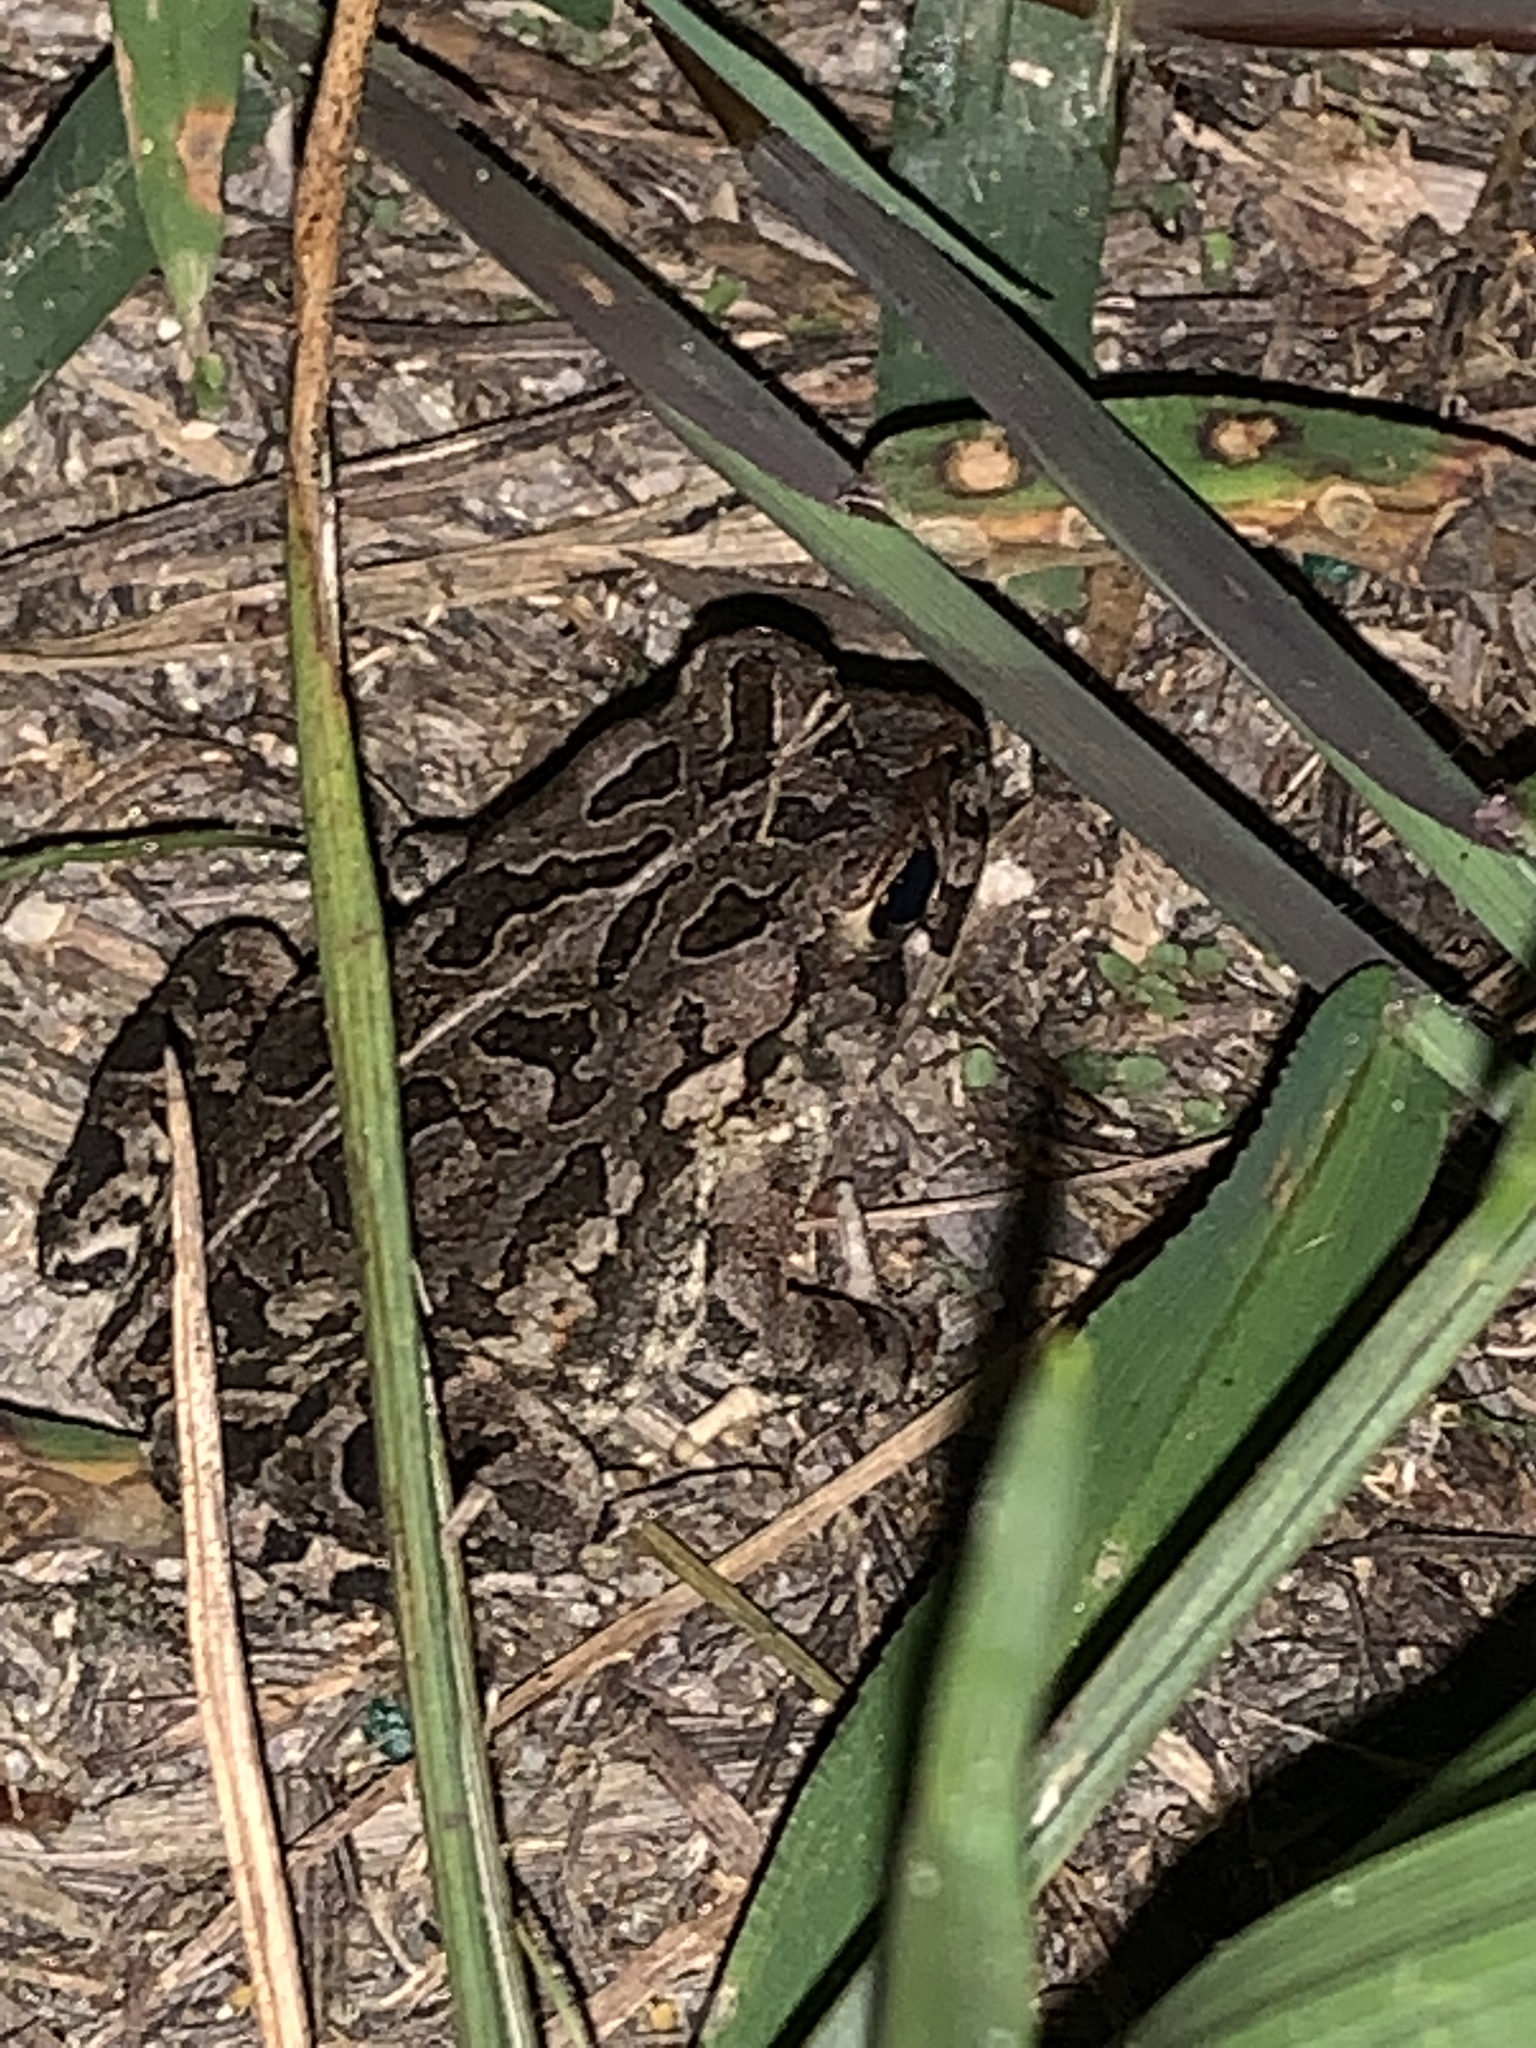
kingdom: Animalia
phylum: Chordata
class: Amphibia
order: Anura
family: Bufonidae
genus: Anaxyrus
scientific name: Anaxyrus fowleri
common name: Fowler's toad
